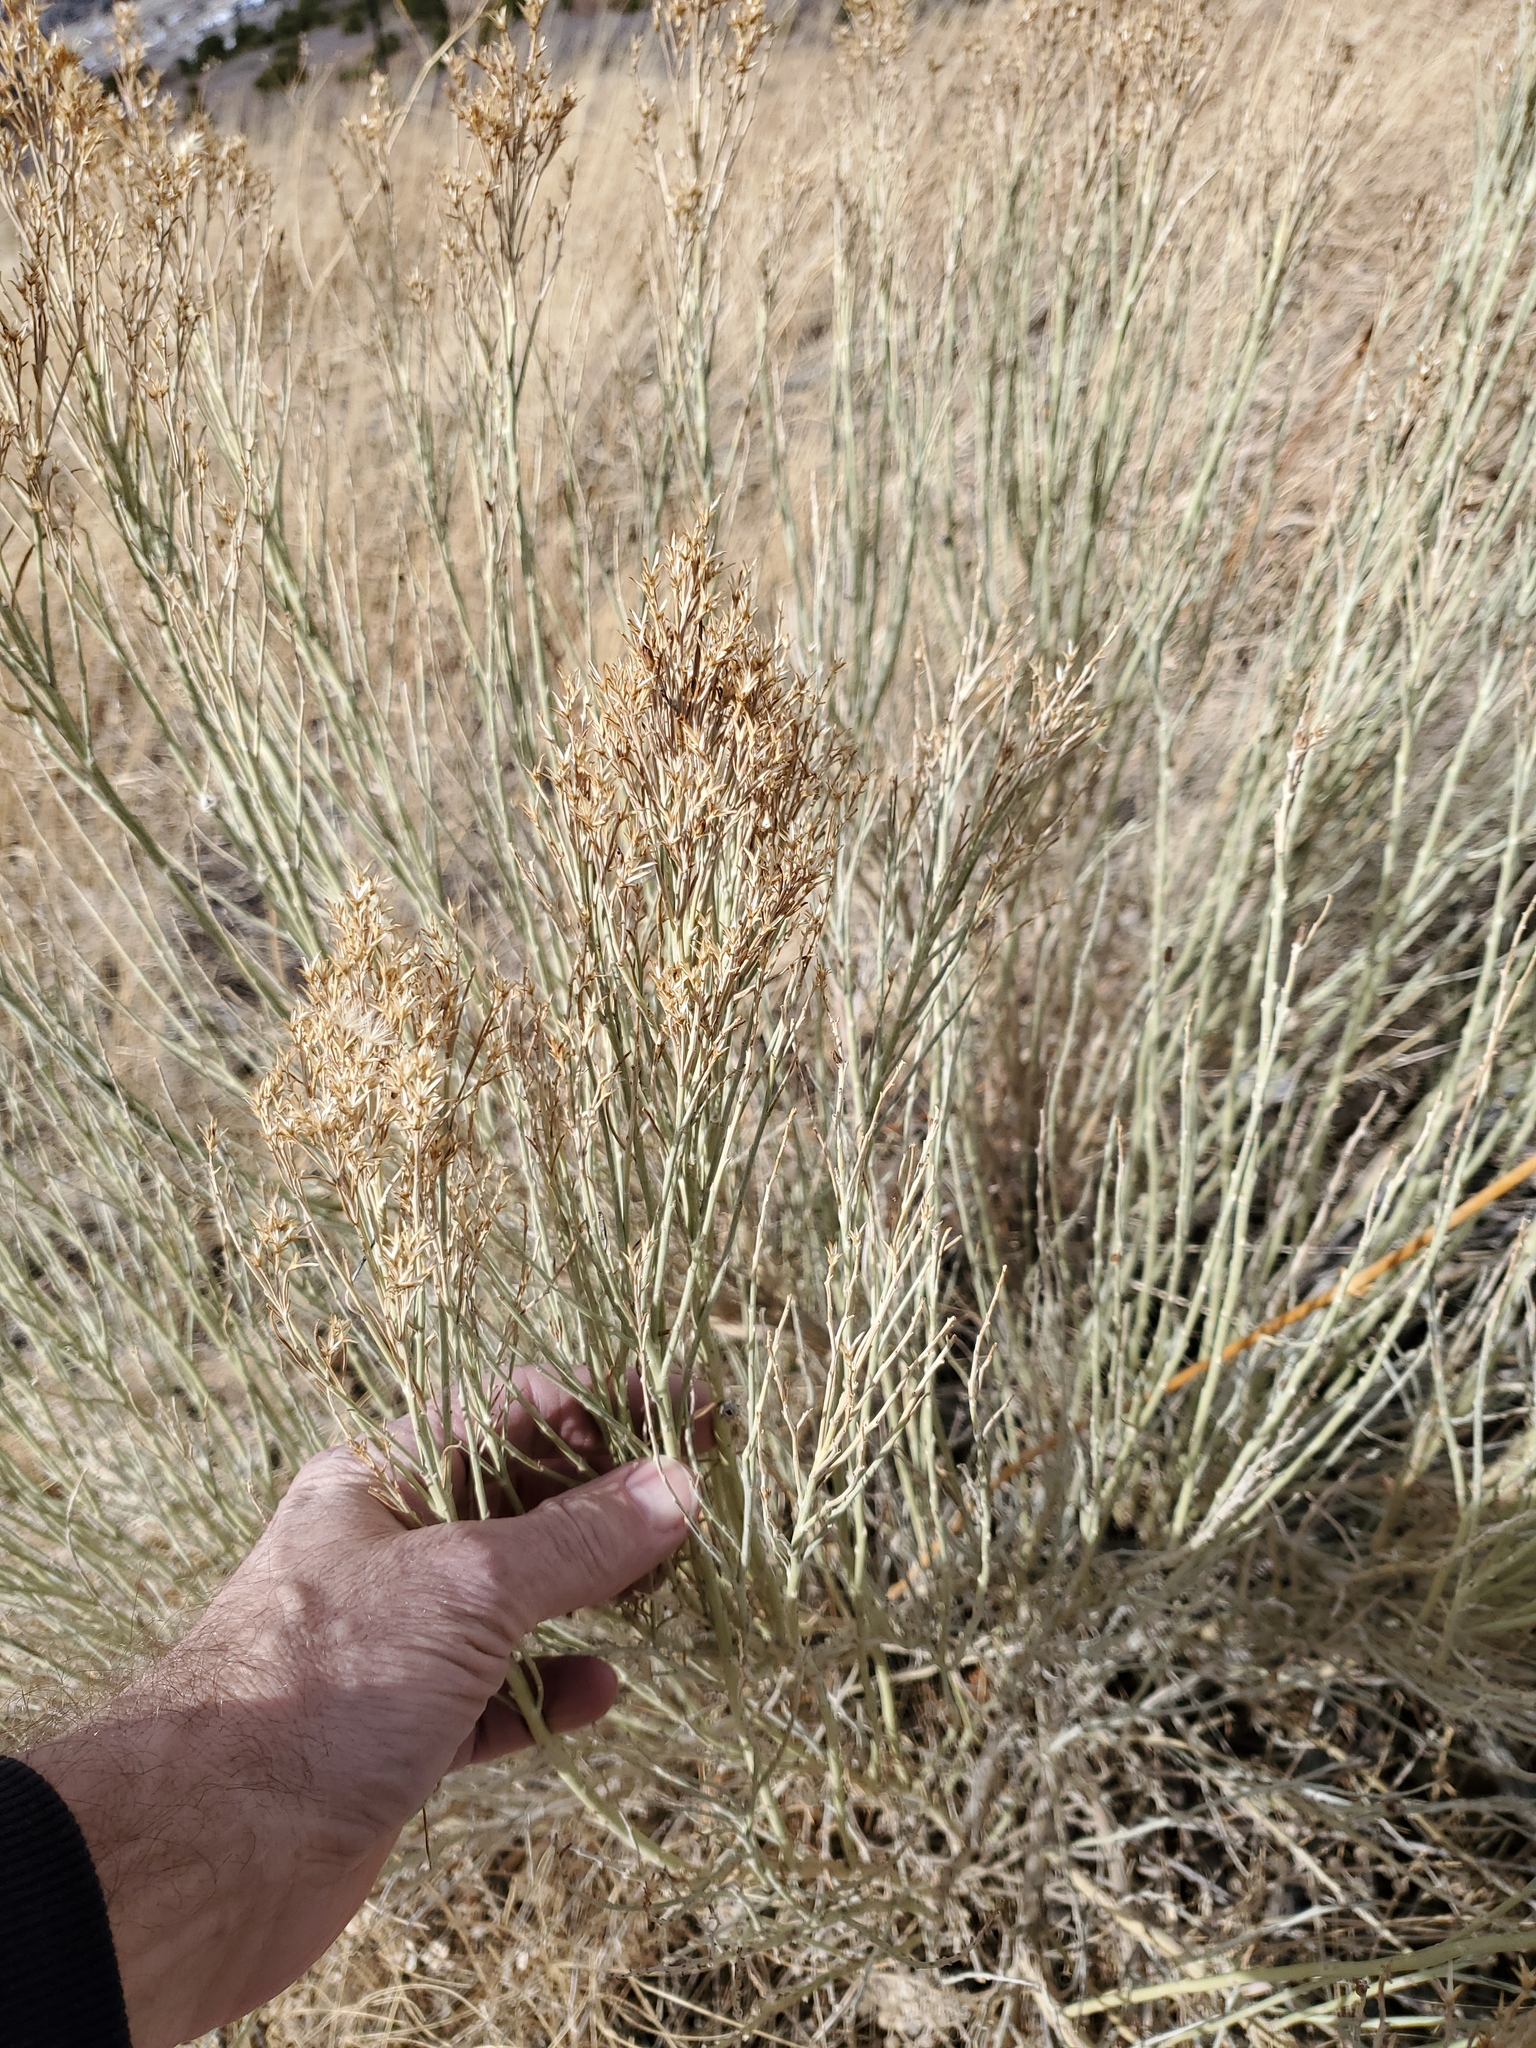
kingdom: Plantae
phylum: Tracheophyta
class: Magnoliopsida
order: Asterales
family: Asteraceae
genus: Ericameria
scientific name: Ericameria nauseosa
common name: Rubber rabbitbrush
